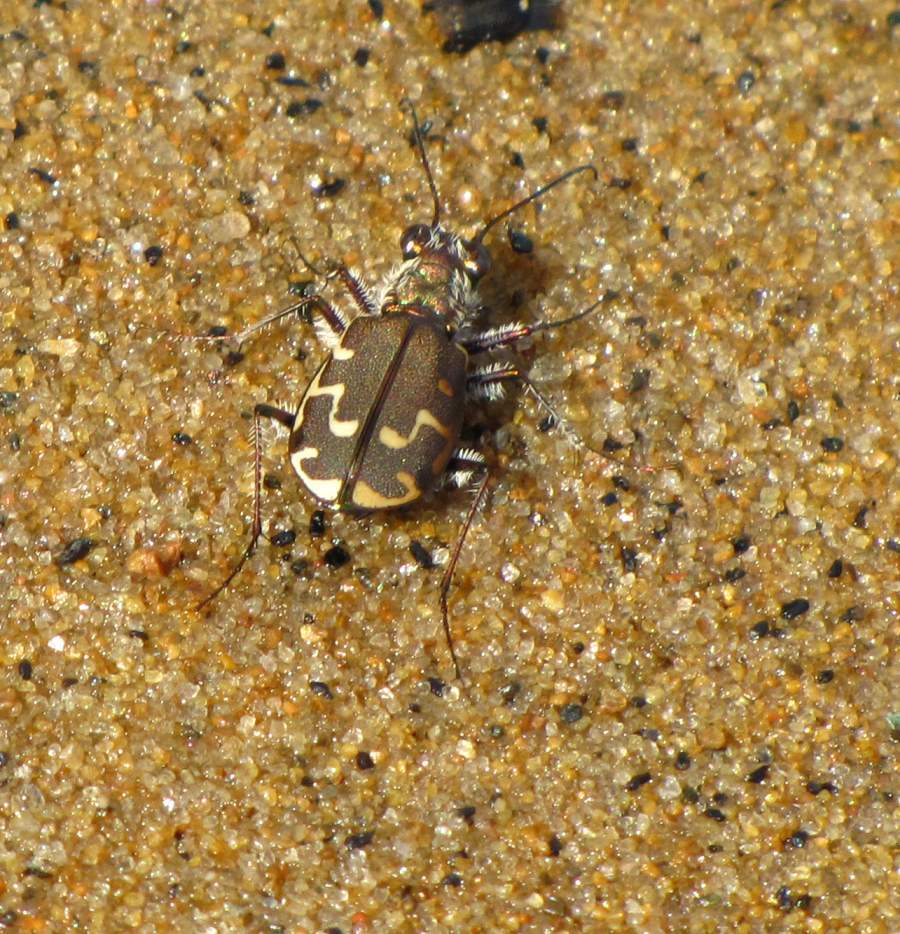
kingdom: Animalia
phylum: Arthropoda
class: Insecta
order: Coleoptera
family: Carabidae
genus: Cicindela
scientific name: Cicindela repanda
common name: Bronzed tiger beetle
